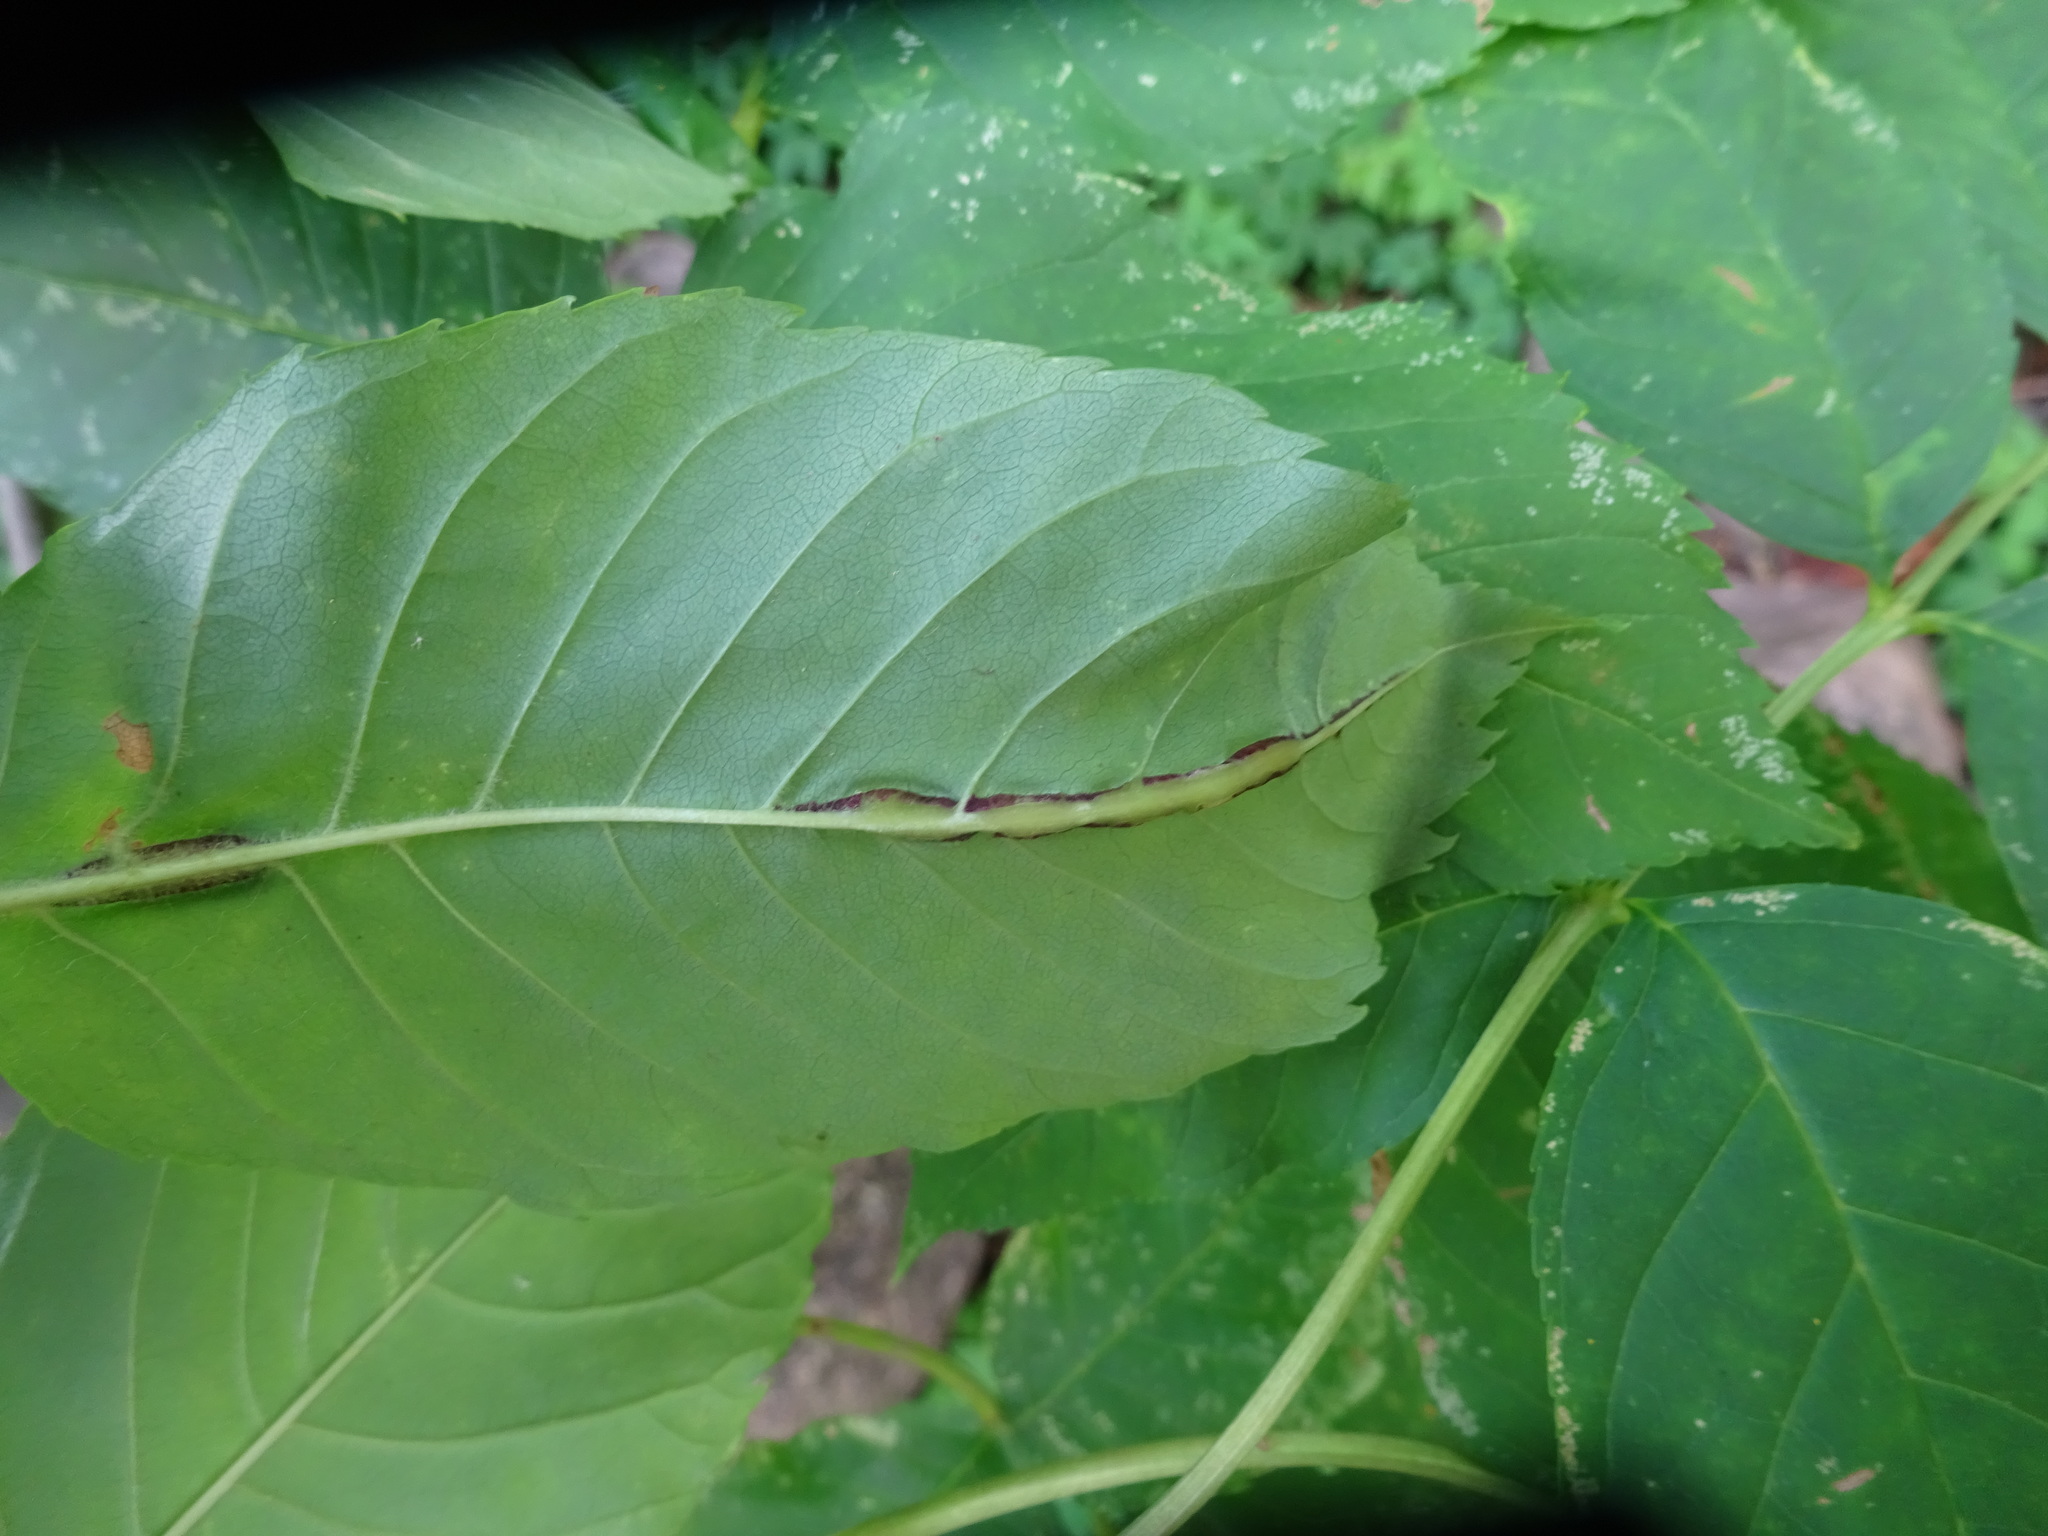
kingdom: Plantae
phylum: Tracheophyta
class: Magnoliopsida
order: Lamiales
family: Oleaceae
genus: Fraxinus
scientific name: Fraxinus excelsior
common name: European ash
